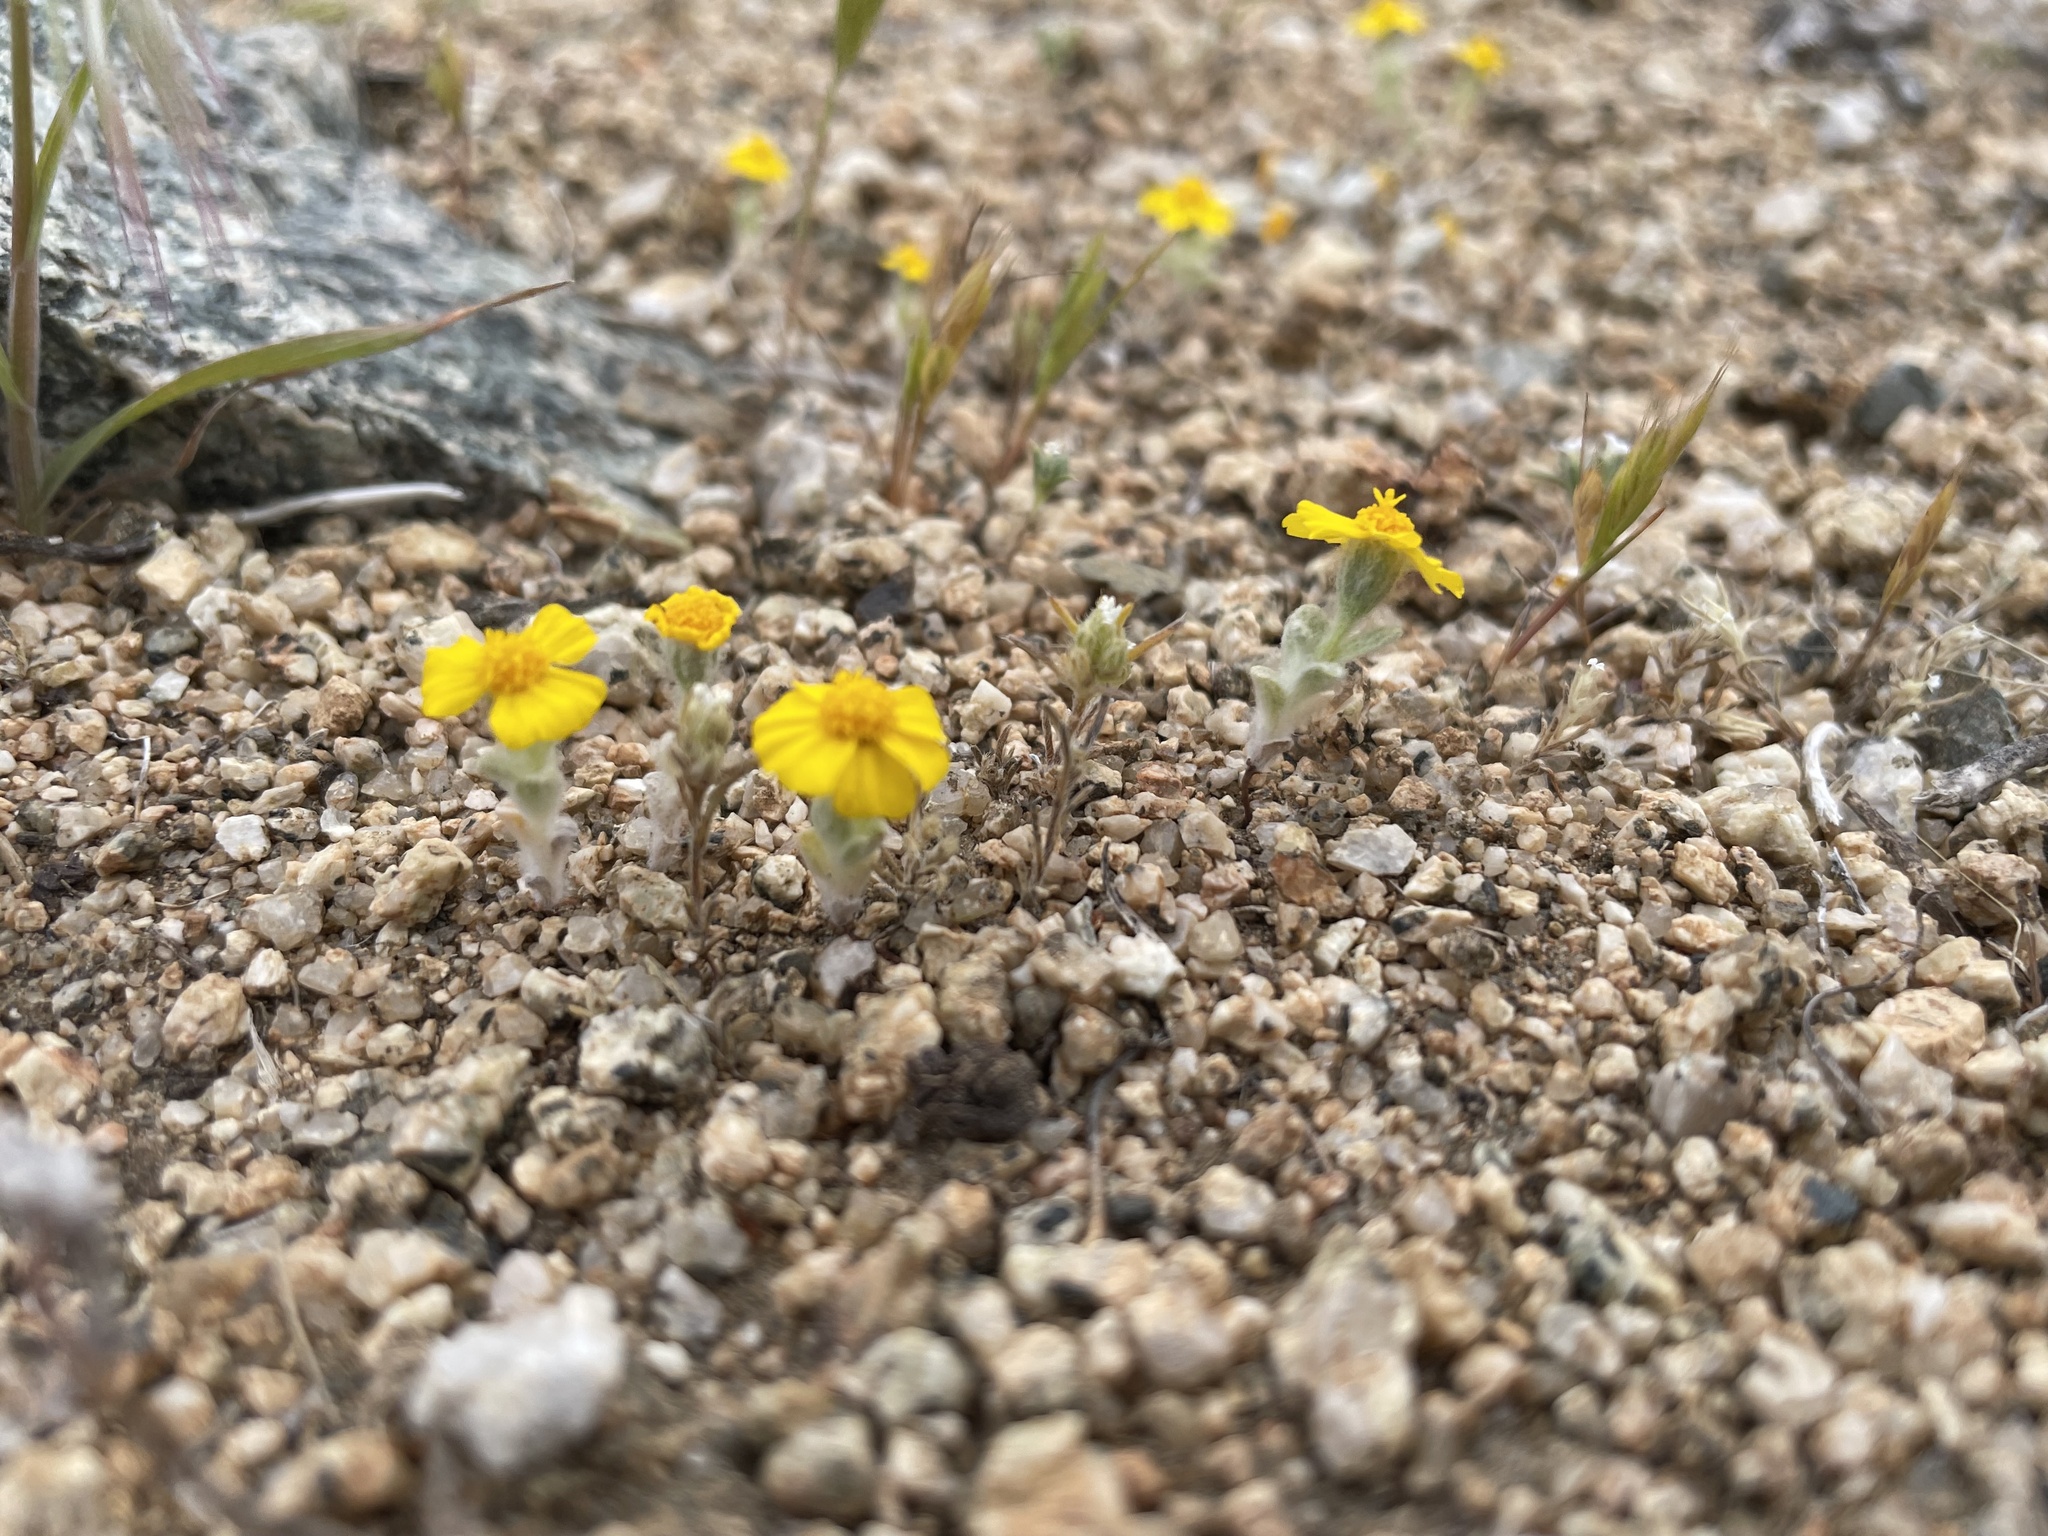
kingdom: Plantae
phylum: Tracheophyta
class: Magnoliopsida
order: Asterales
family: Asteraceae
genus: Eriophyllum
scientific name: Eriophyllum wallacei
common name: Wallace's woolly daisy
